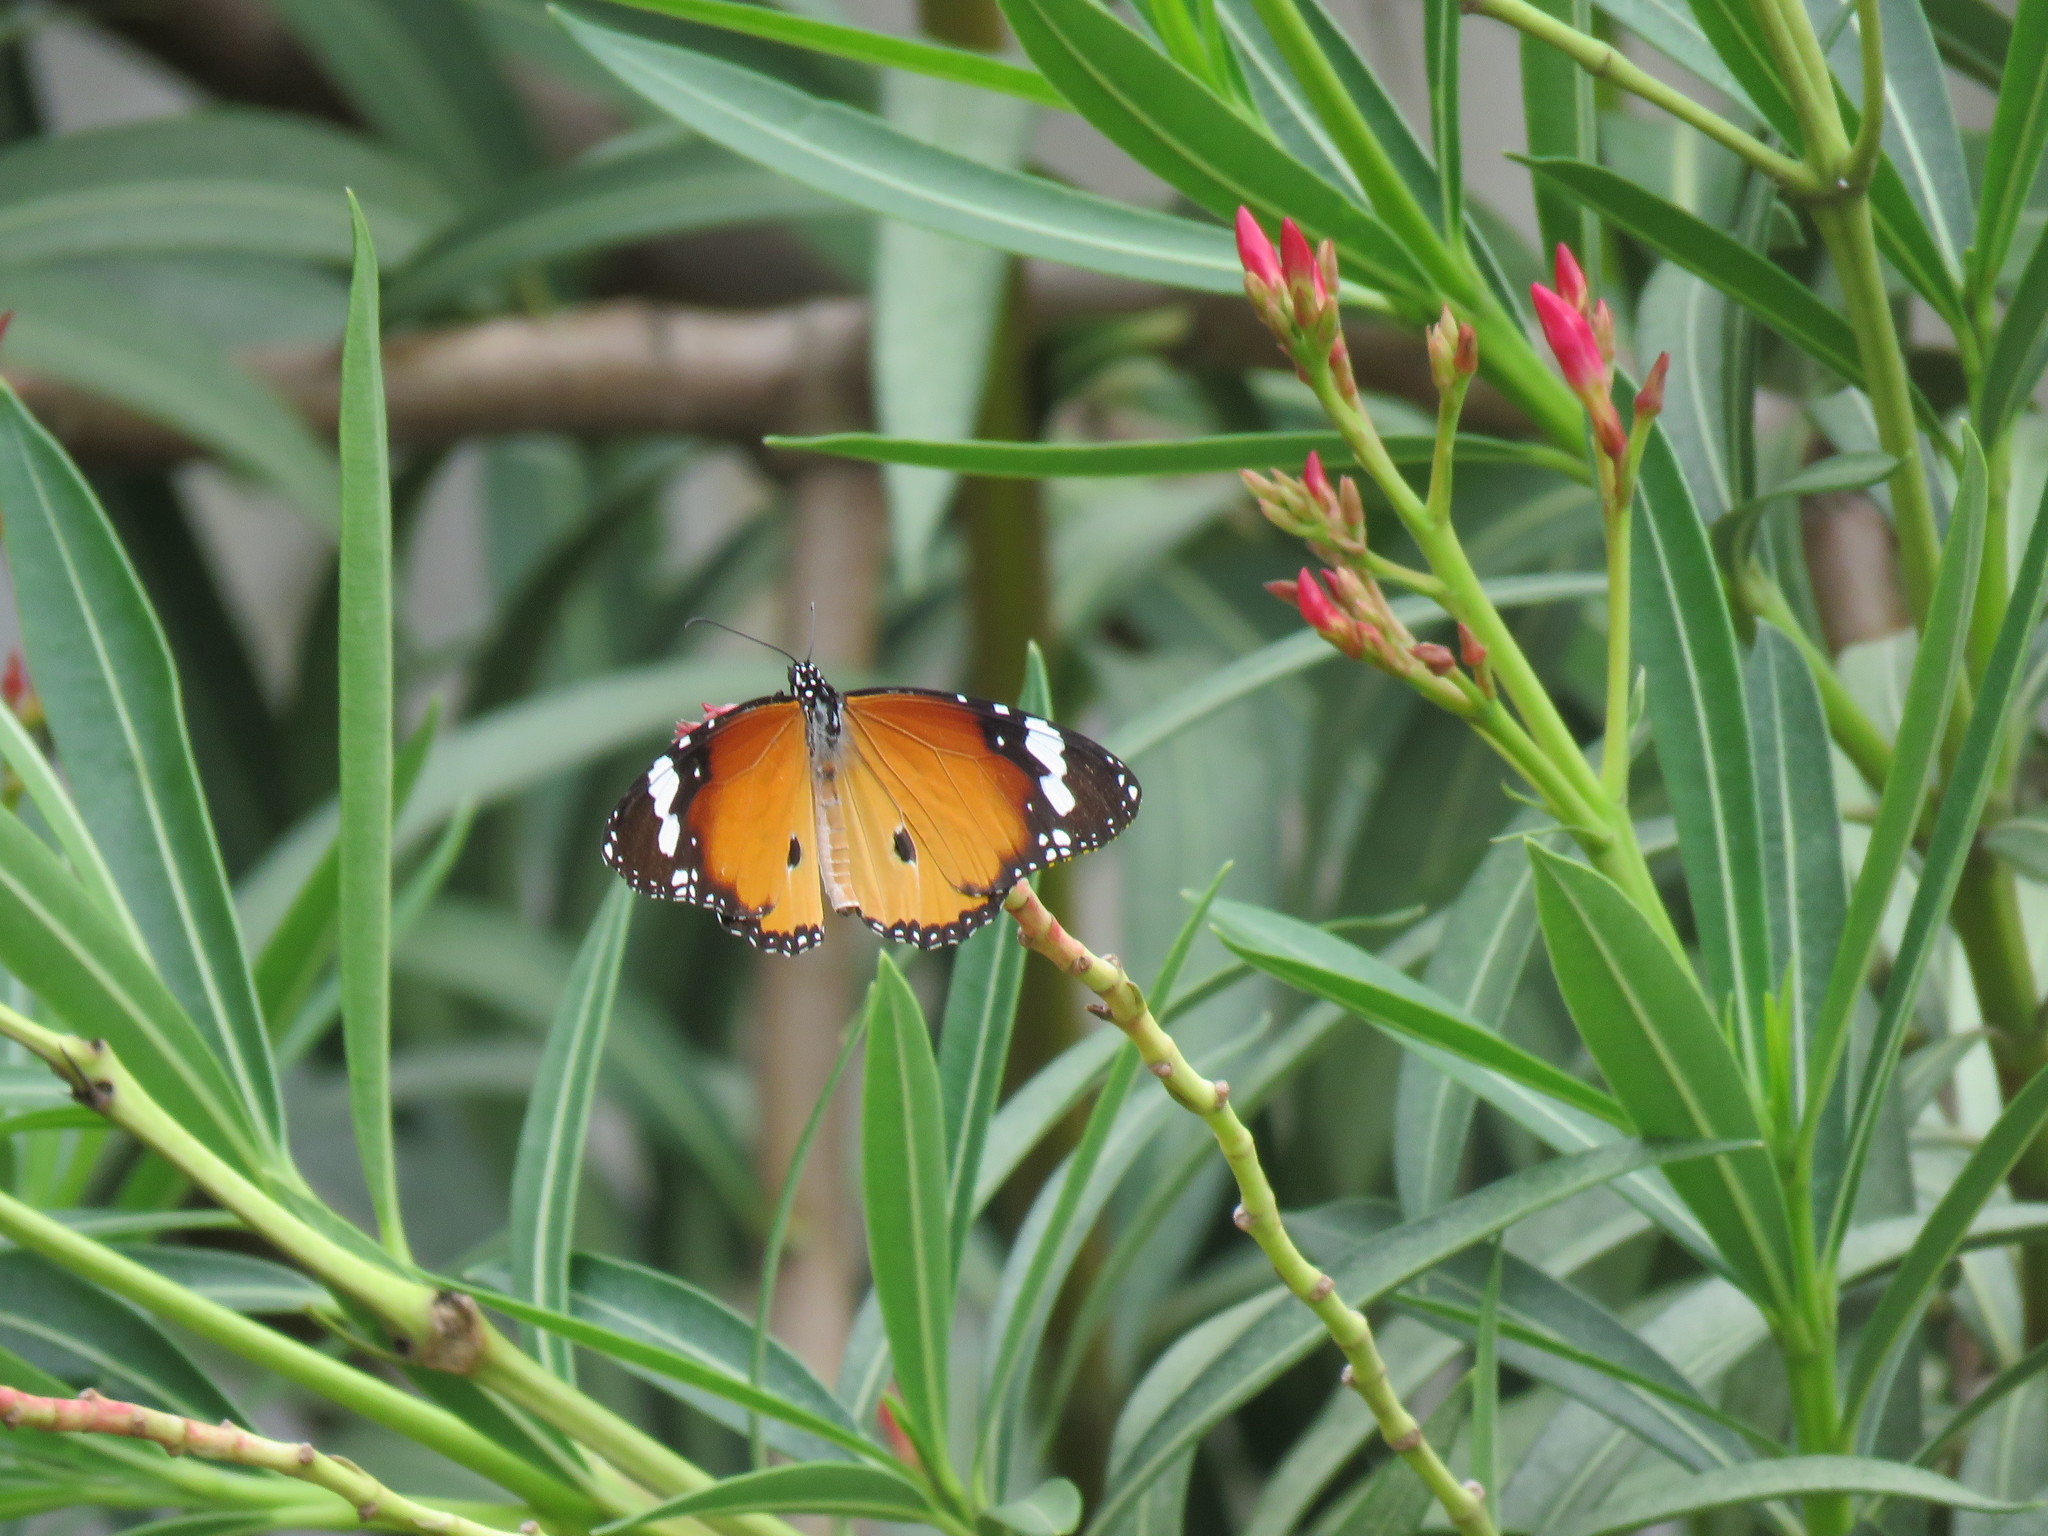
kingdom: Animalia
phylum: Arthropoda
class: Insecta
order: Lepidoptera
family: Nymphalidae
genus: Danaus
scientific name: Danaus chrysippus
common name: Plain tiger
